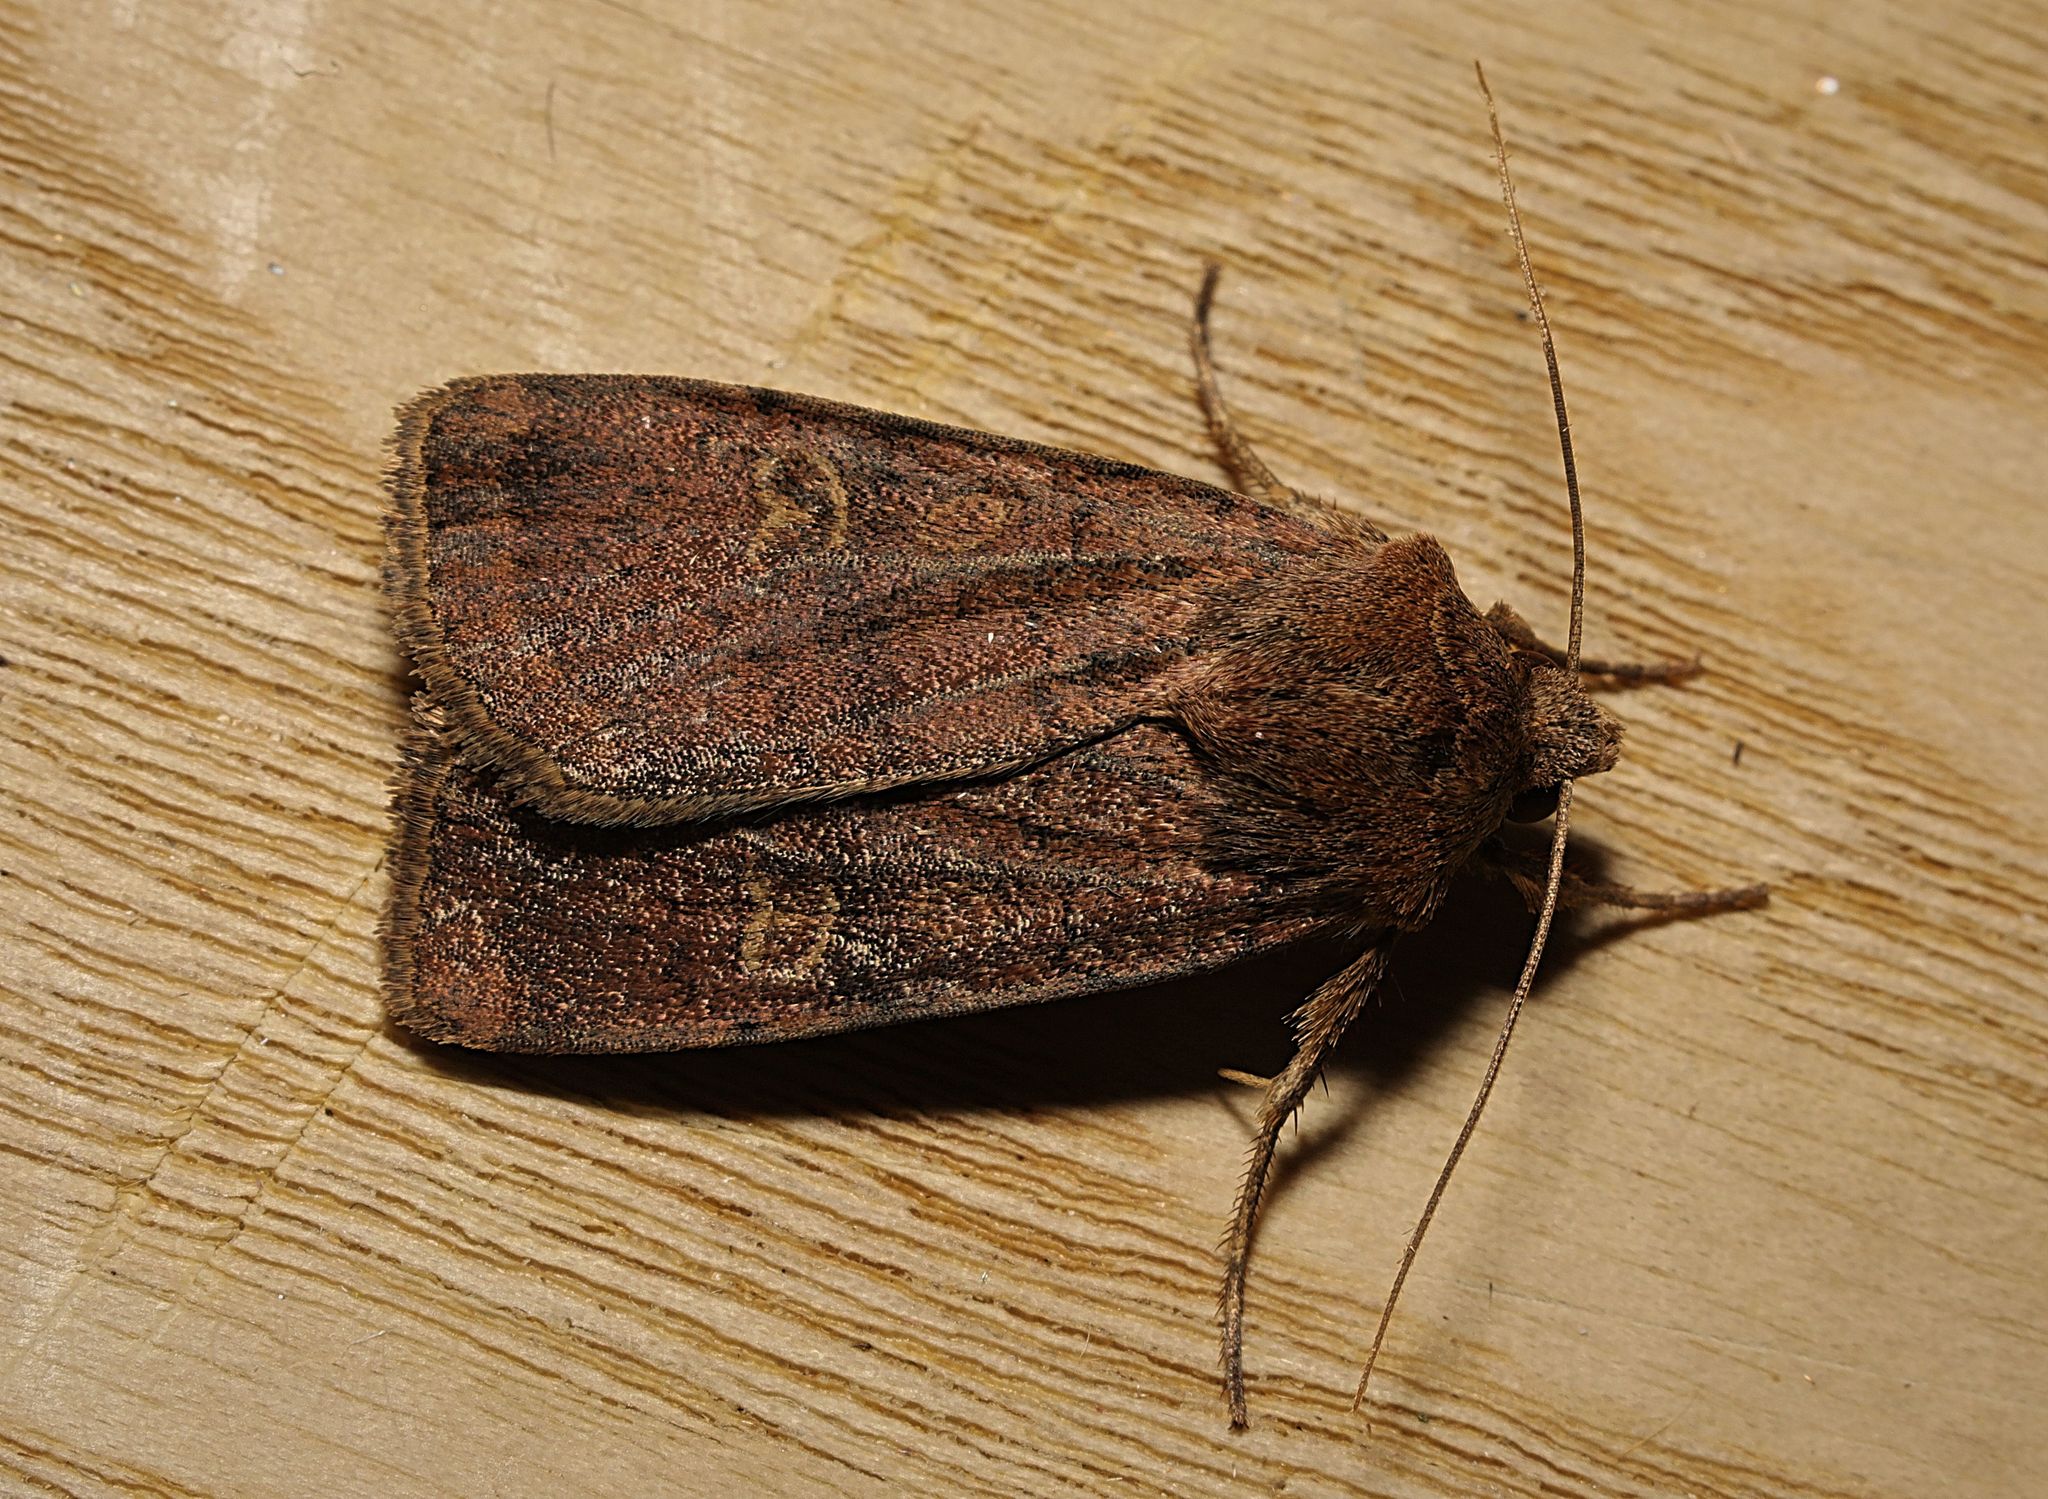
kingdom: Animalia
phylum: Arthropoda
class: Insecta
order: Lepidoptera
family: Noctuidae
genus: Xestia
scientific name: Xestia xanthographa
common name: Square-spot rustic
